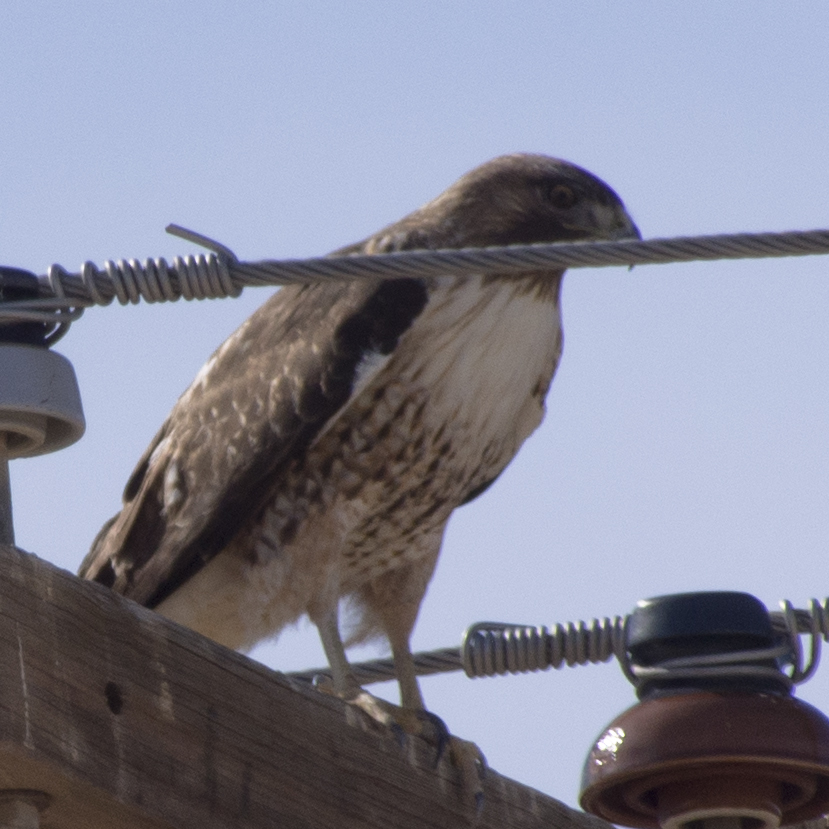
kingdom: Animalia
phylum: Chordata
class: Aves
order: Accipitriformes
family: Accipitridae
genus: Buteo
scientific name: Buteo jamaicensis
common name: Red-tailed hawk
